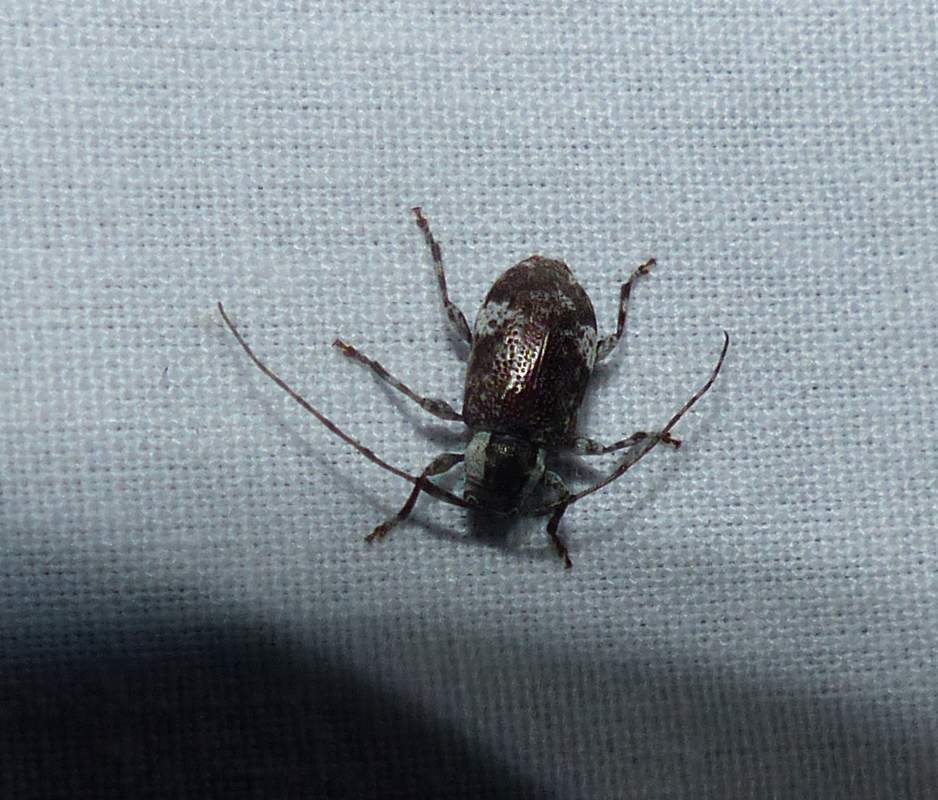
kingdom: Animalia
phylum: Arthropoda
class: Insecta
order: Coleoptera
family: Cerambycidae
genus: Astylopsis
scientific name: Astylopsis macula
